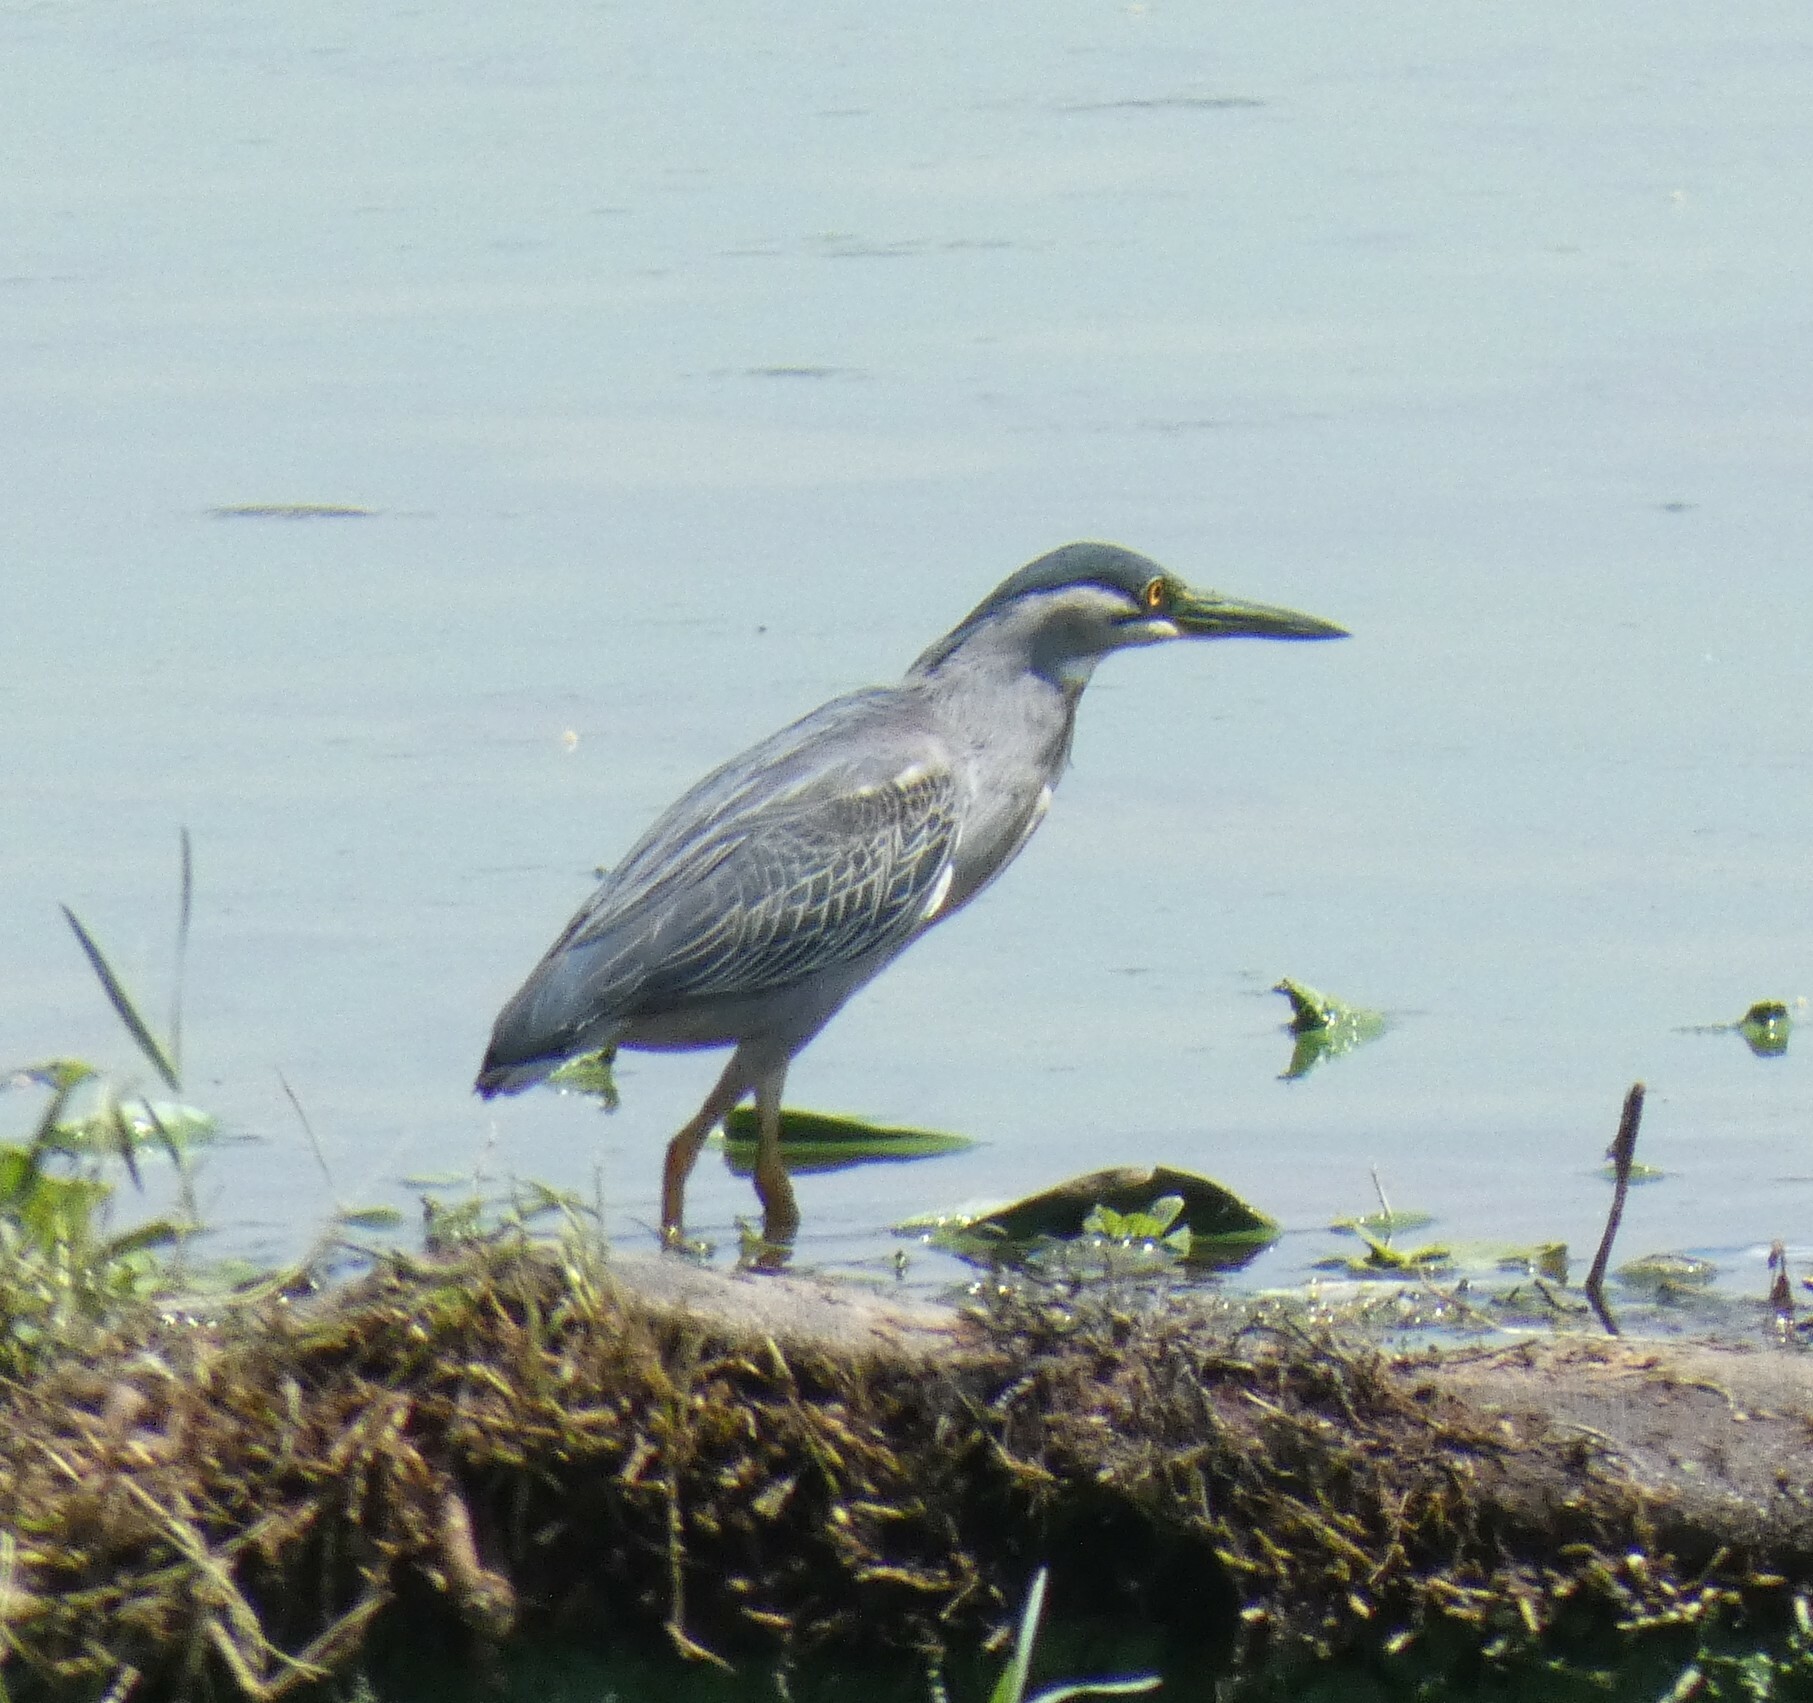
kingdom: Animalia
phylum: Chordata
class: Aves
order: Pelecaniformes
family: Ardeidae
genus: Butorides
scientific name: Butorides striata
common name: Striated heron
